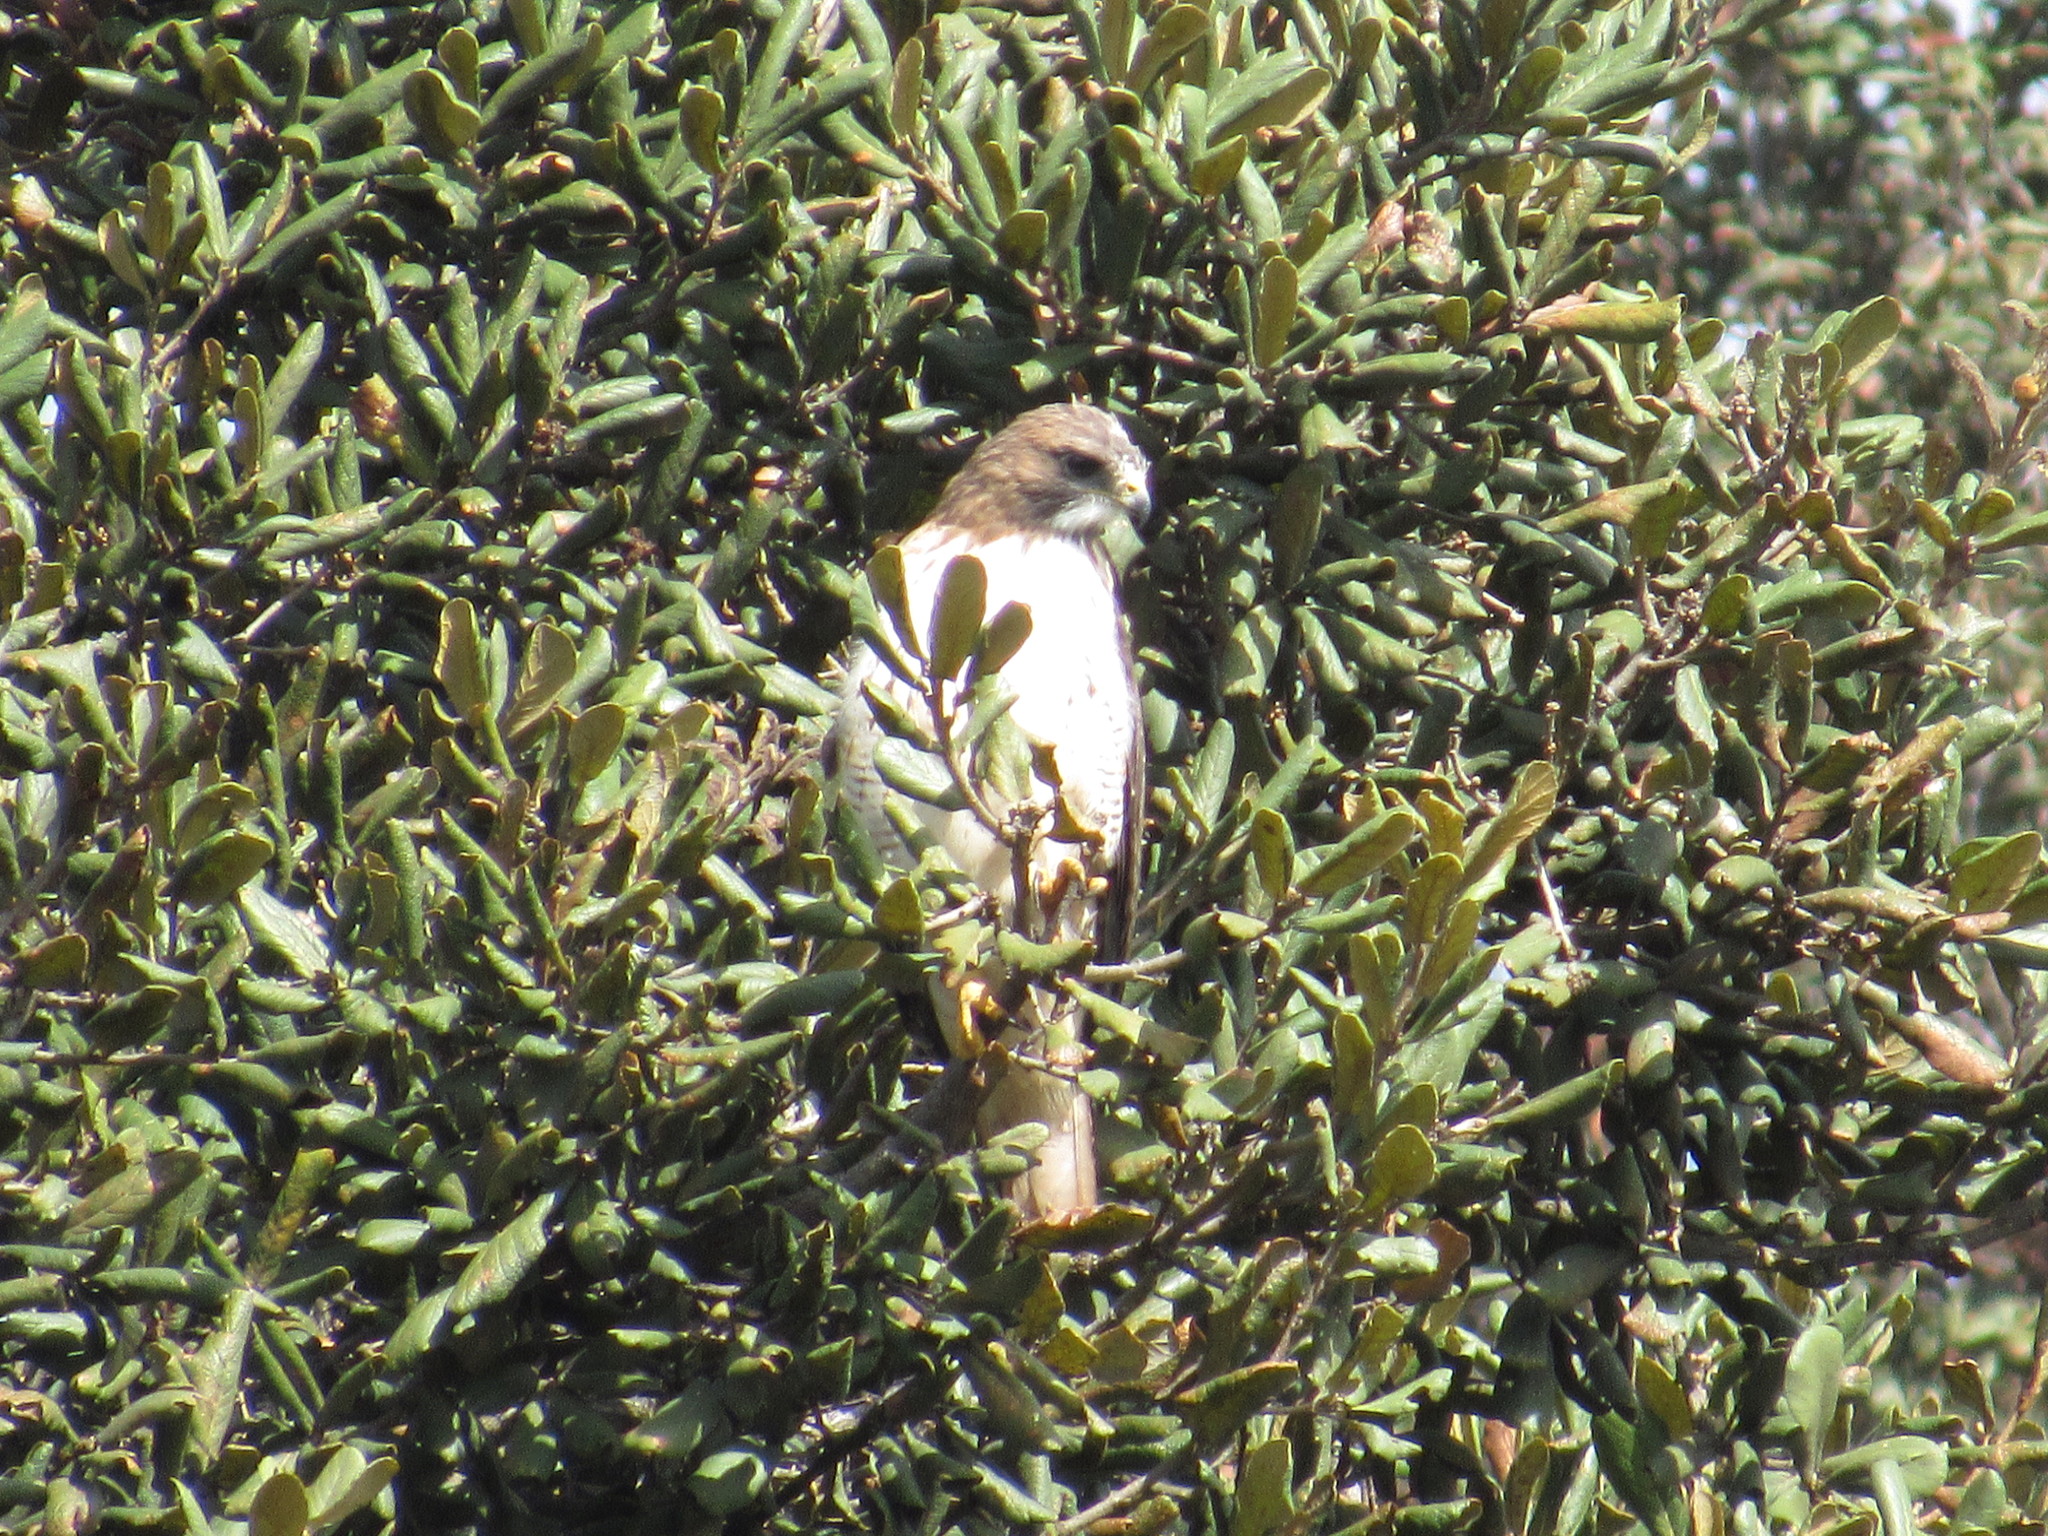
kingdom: Animalia
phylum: Chordata
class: Aves
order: Accipitriformes
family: Accipitridae
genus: Buteo
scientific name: Buteo jamaicensis
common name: Red-tailed hawk
